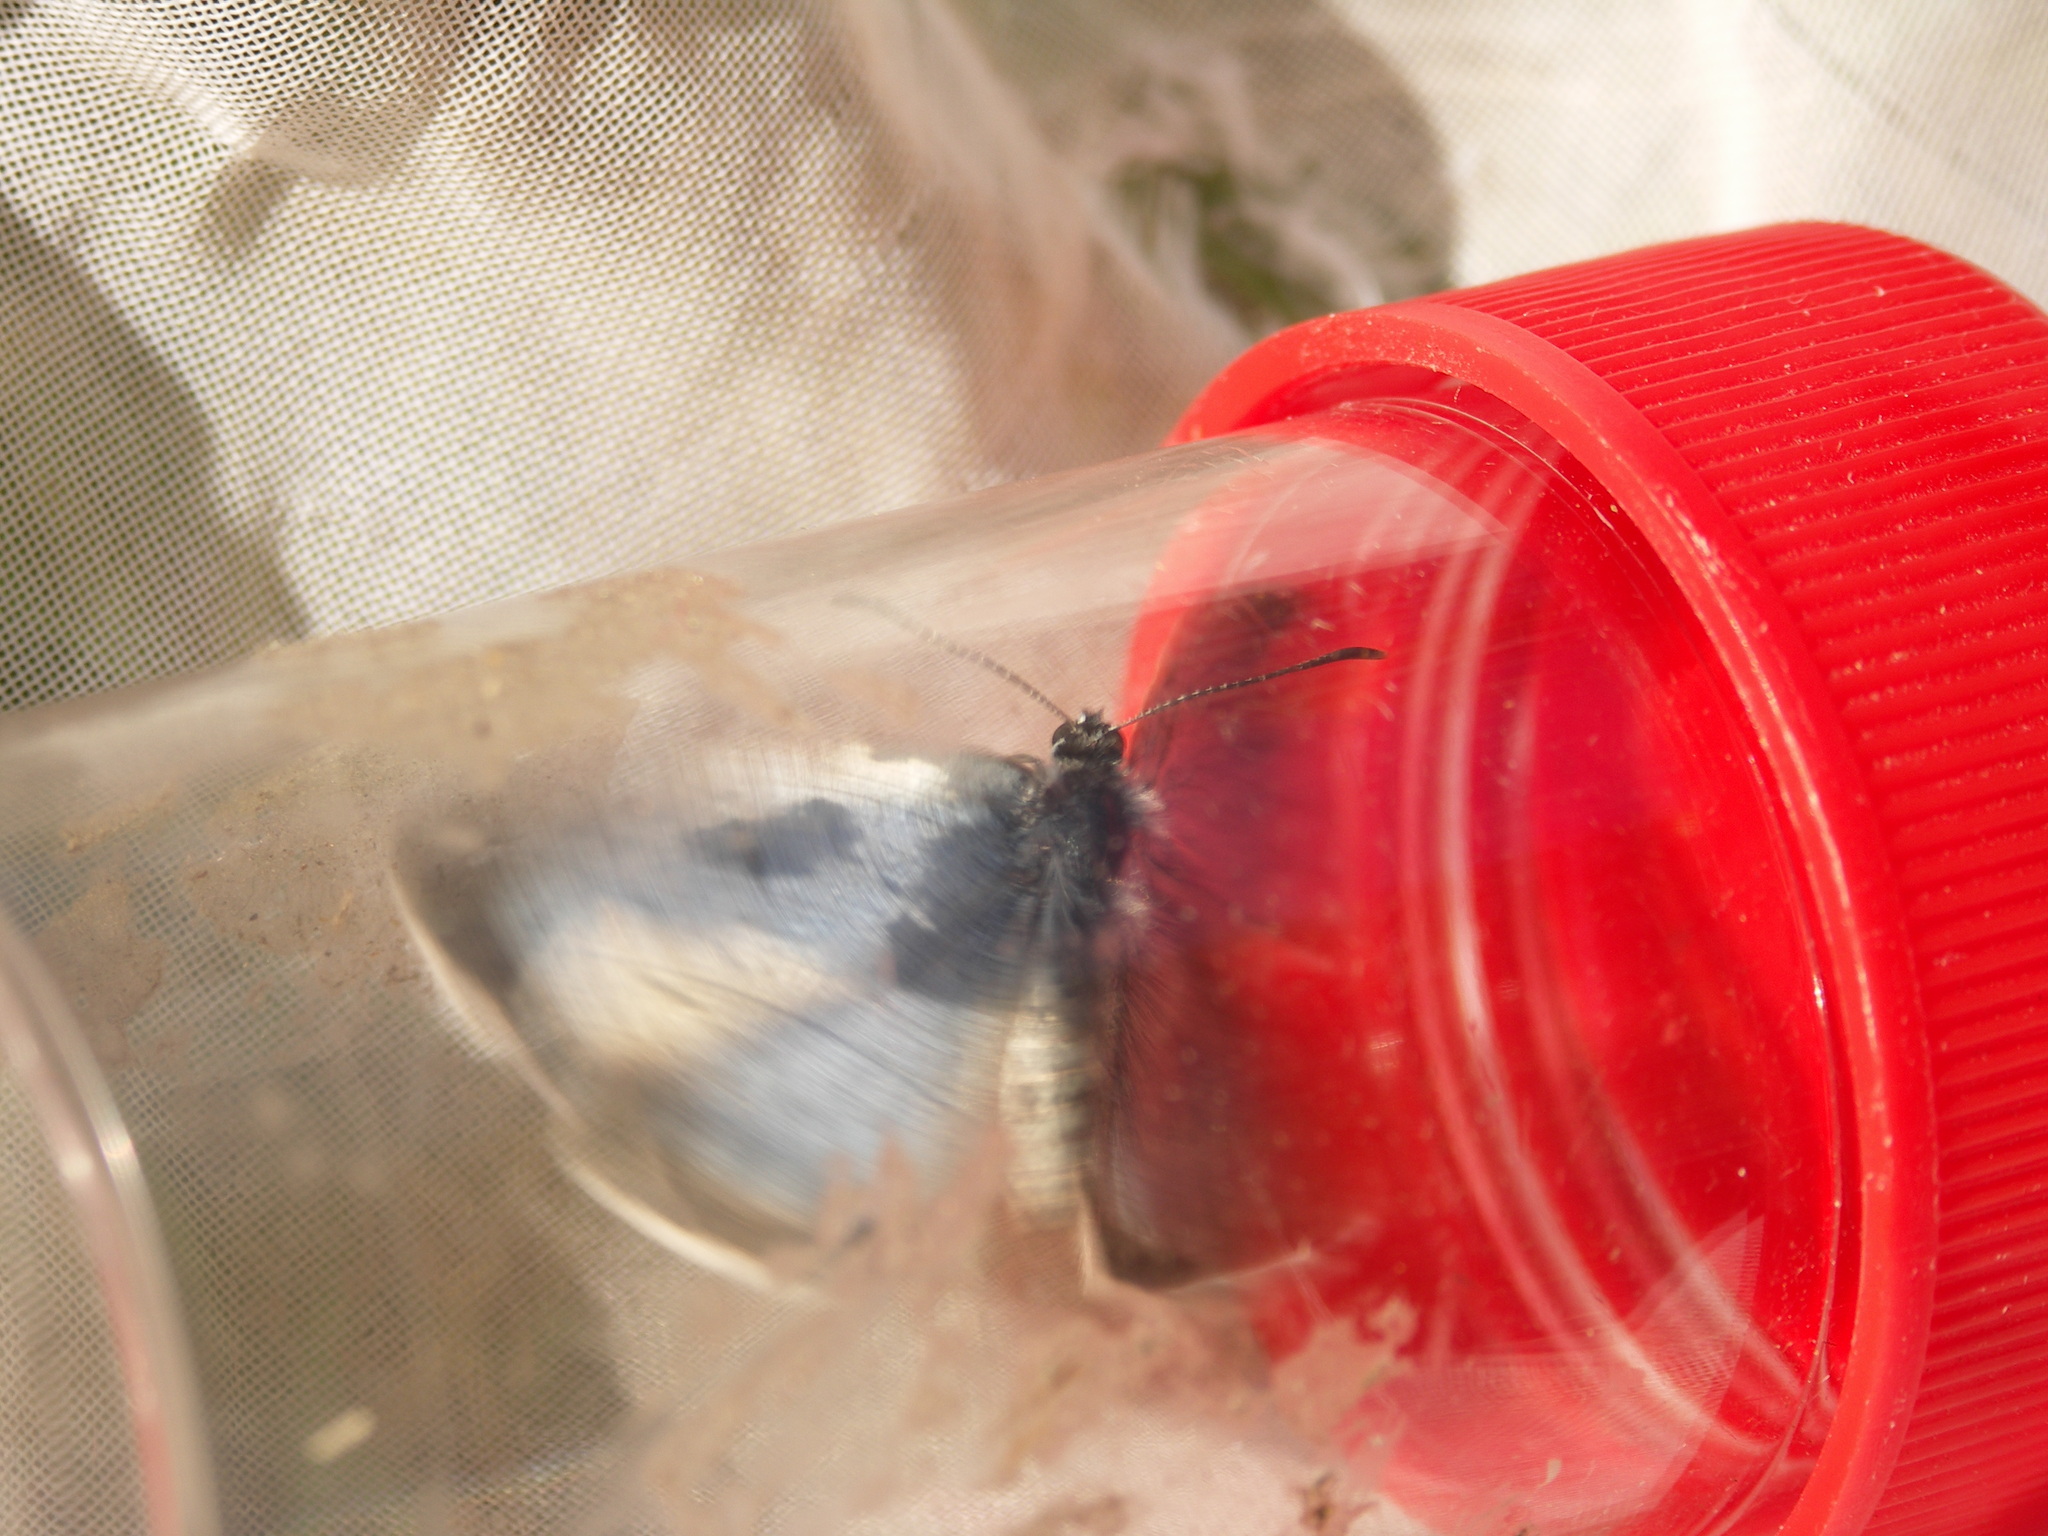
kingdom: Animalia
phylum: Arthropoda
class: Insecta
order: Lepidoptera
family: Lycaenidae
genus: Phengaris
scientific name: Phengaris teleius
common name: Scarce large blue
